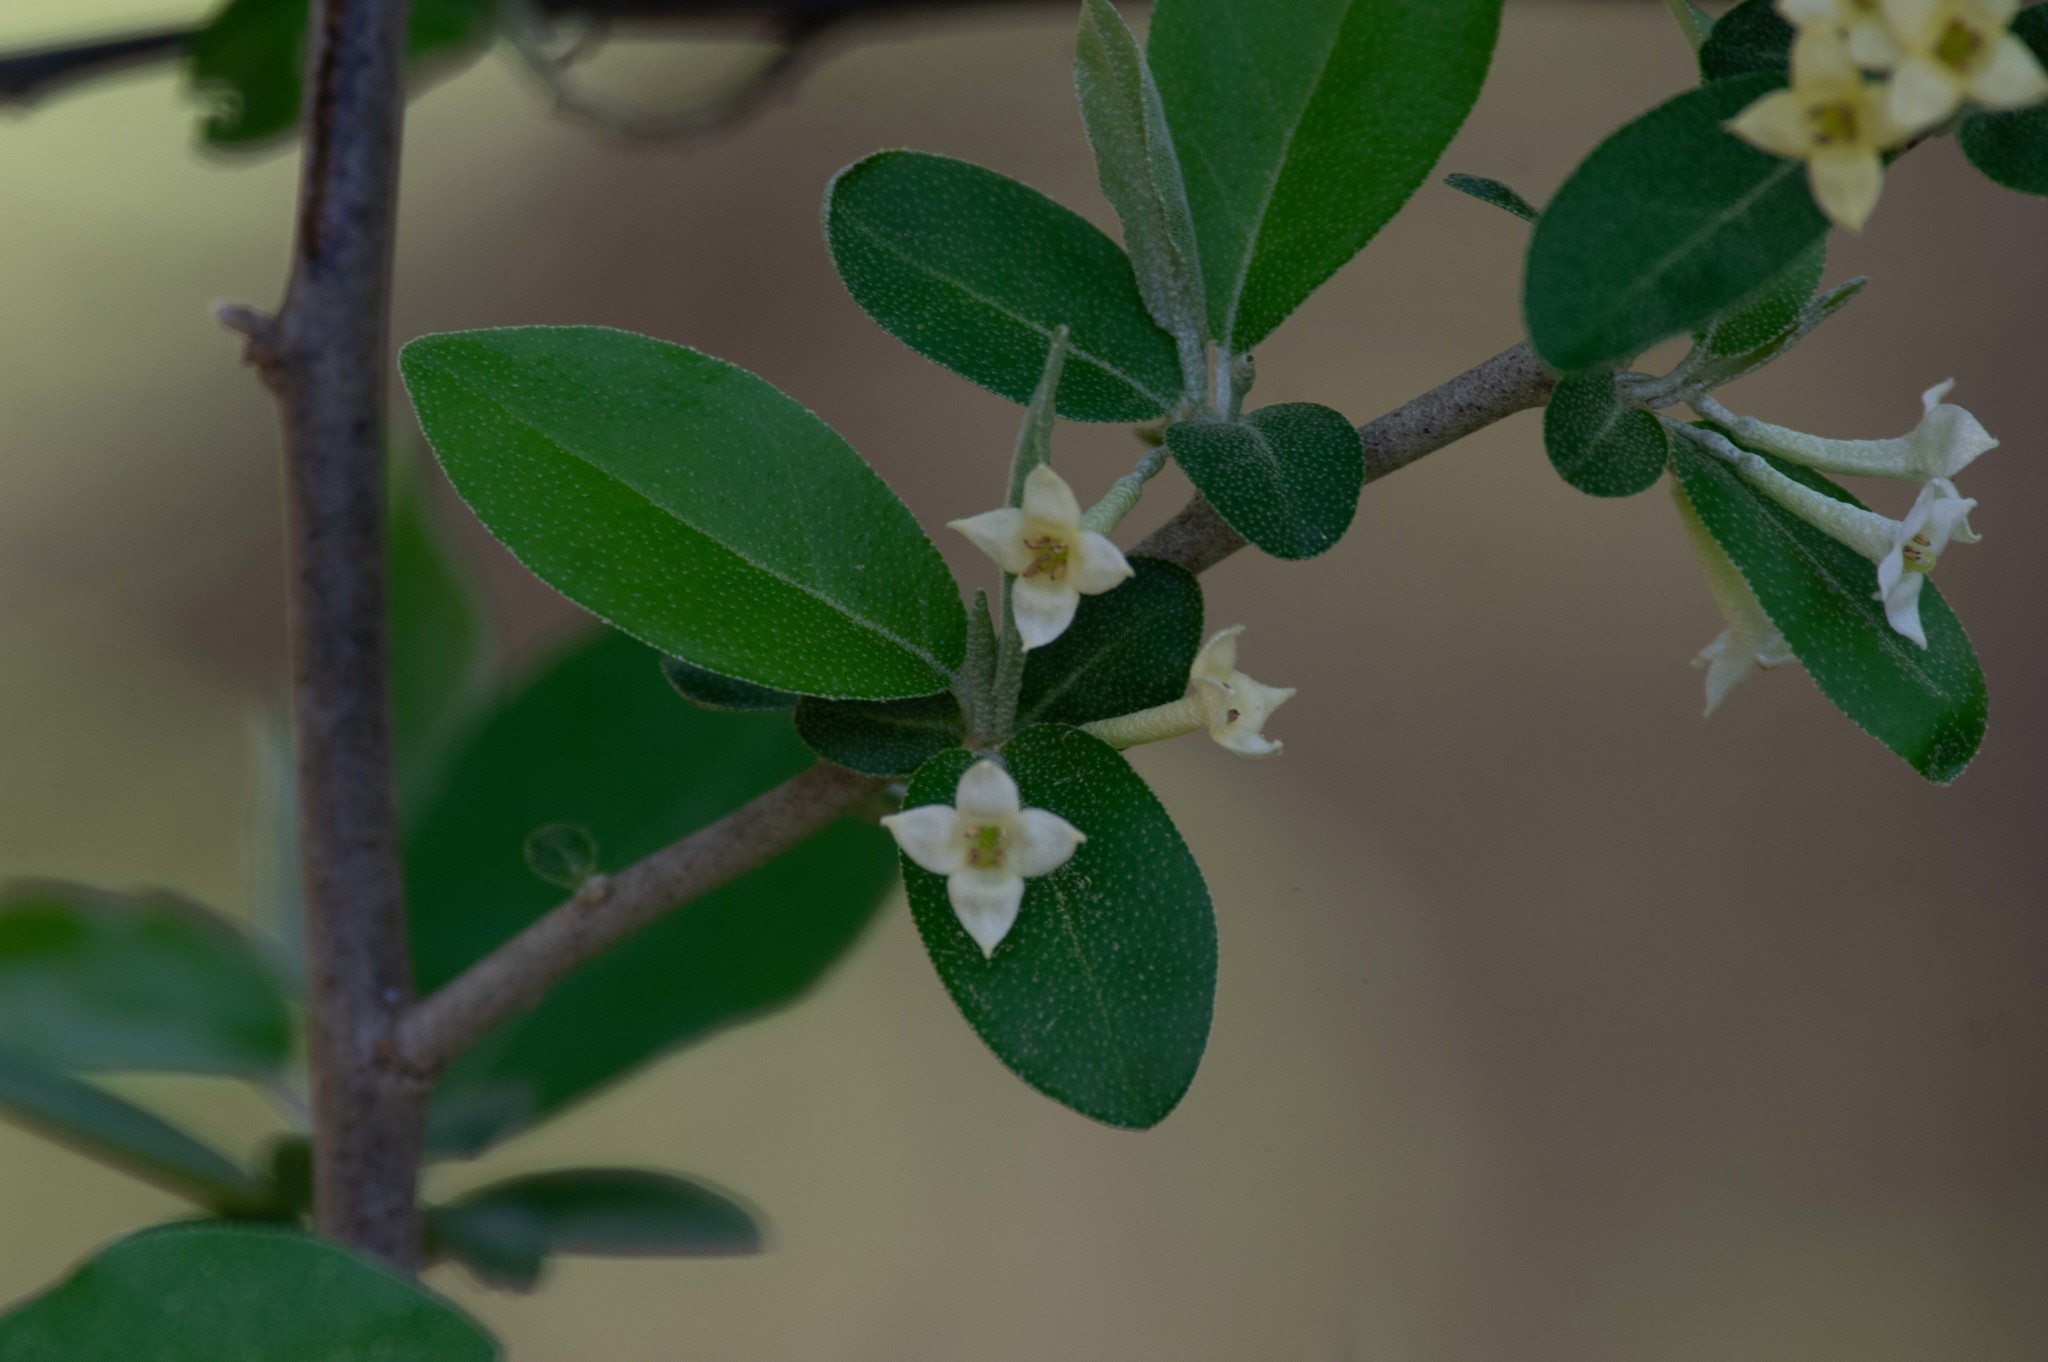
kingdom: Plantae
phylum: Tracheophyta
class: Magnoliopsida
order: Rosales
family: Elaeagnaceae
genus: Elaeagnus
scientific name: Elaeagnus umbellata
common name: Autumn olive
